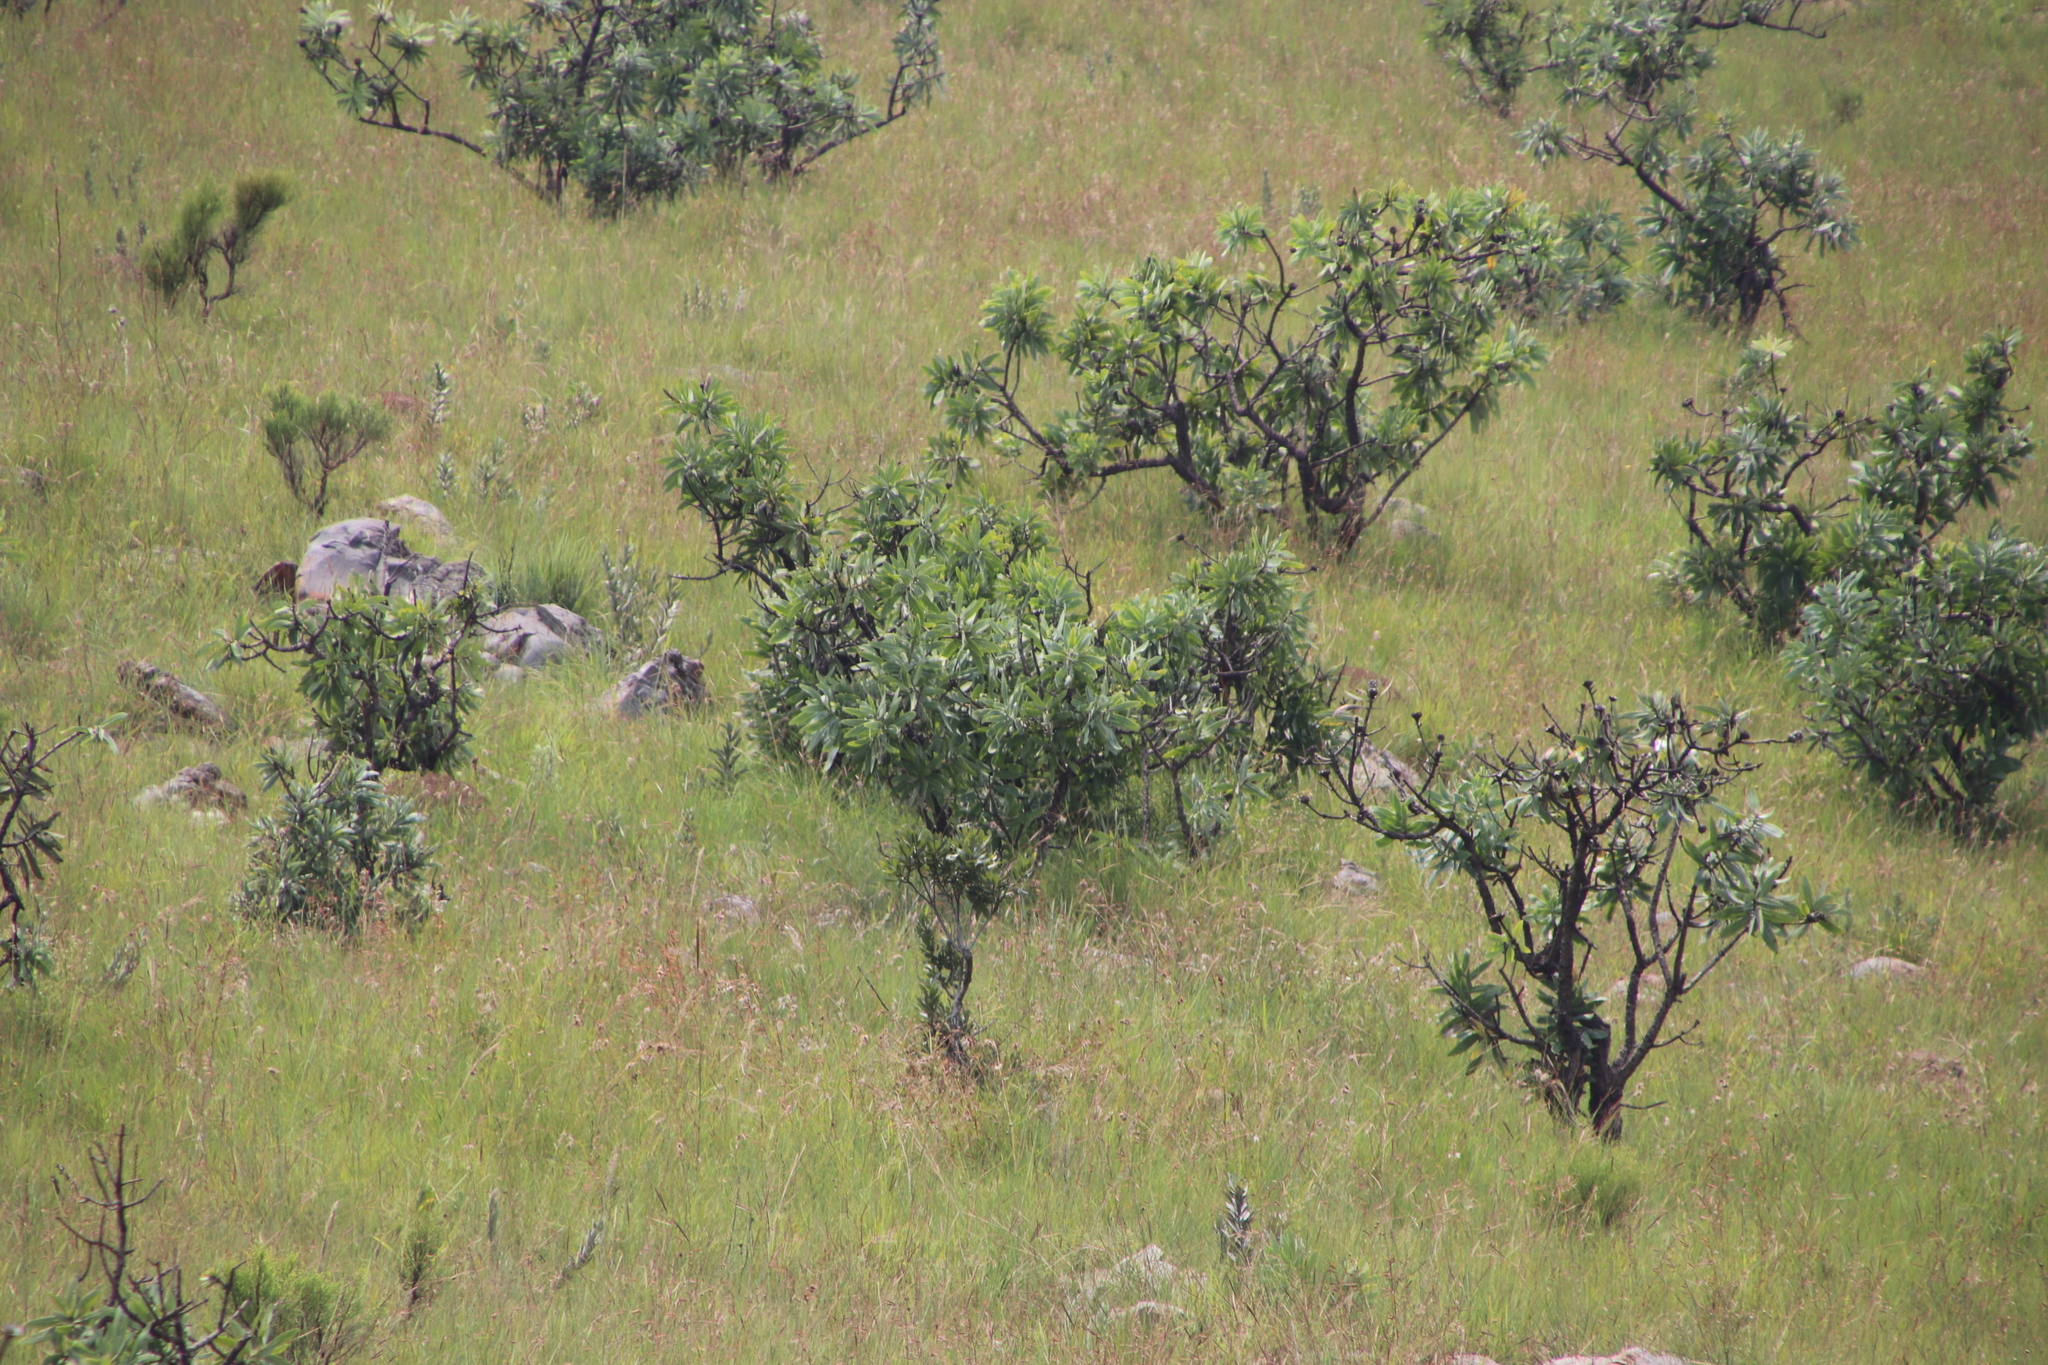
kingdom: Plantae
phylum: Tracheophyta
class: Magnoliopsida
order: Proteales
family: Proteaceae
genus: Protea
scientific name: Protea caffra
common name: Common sugarbush
